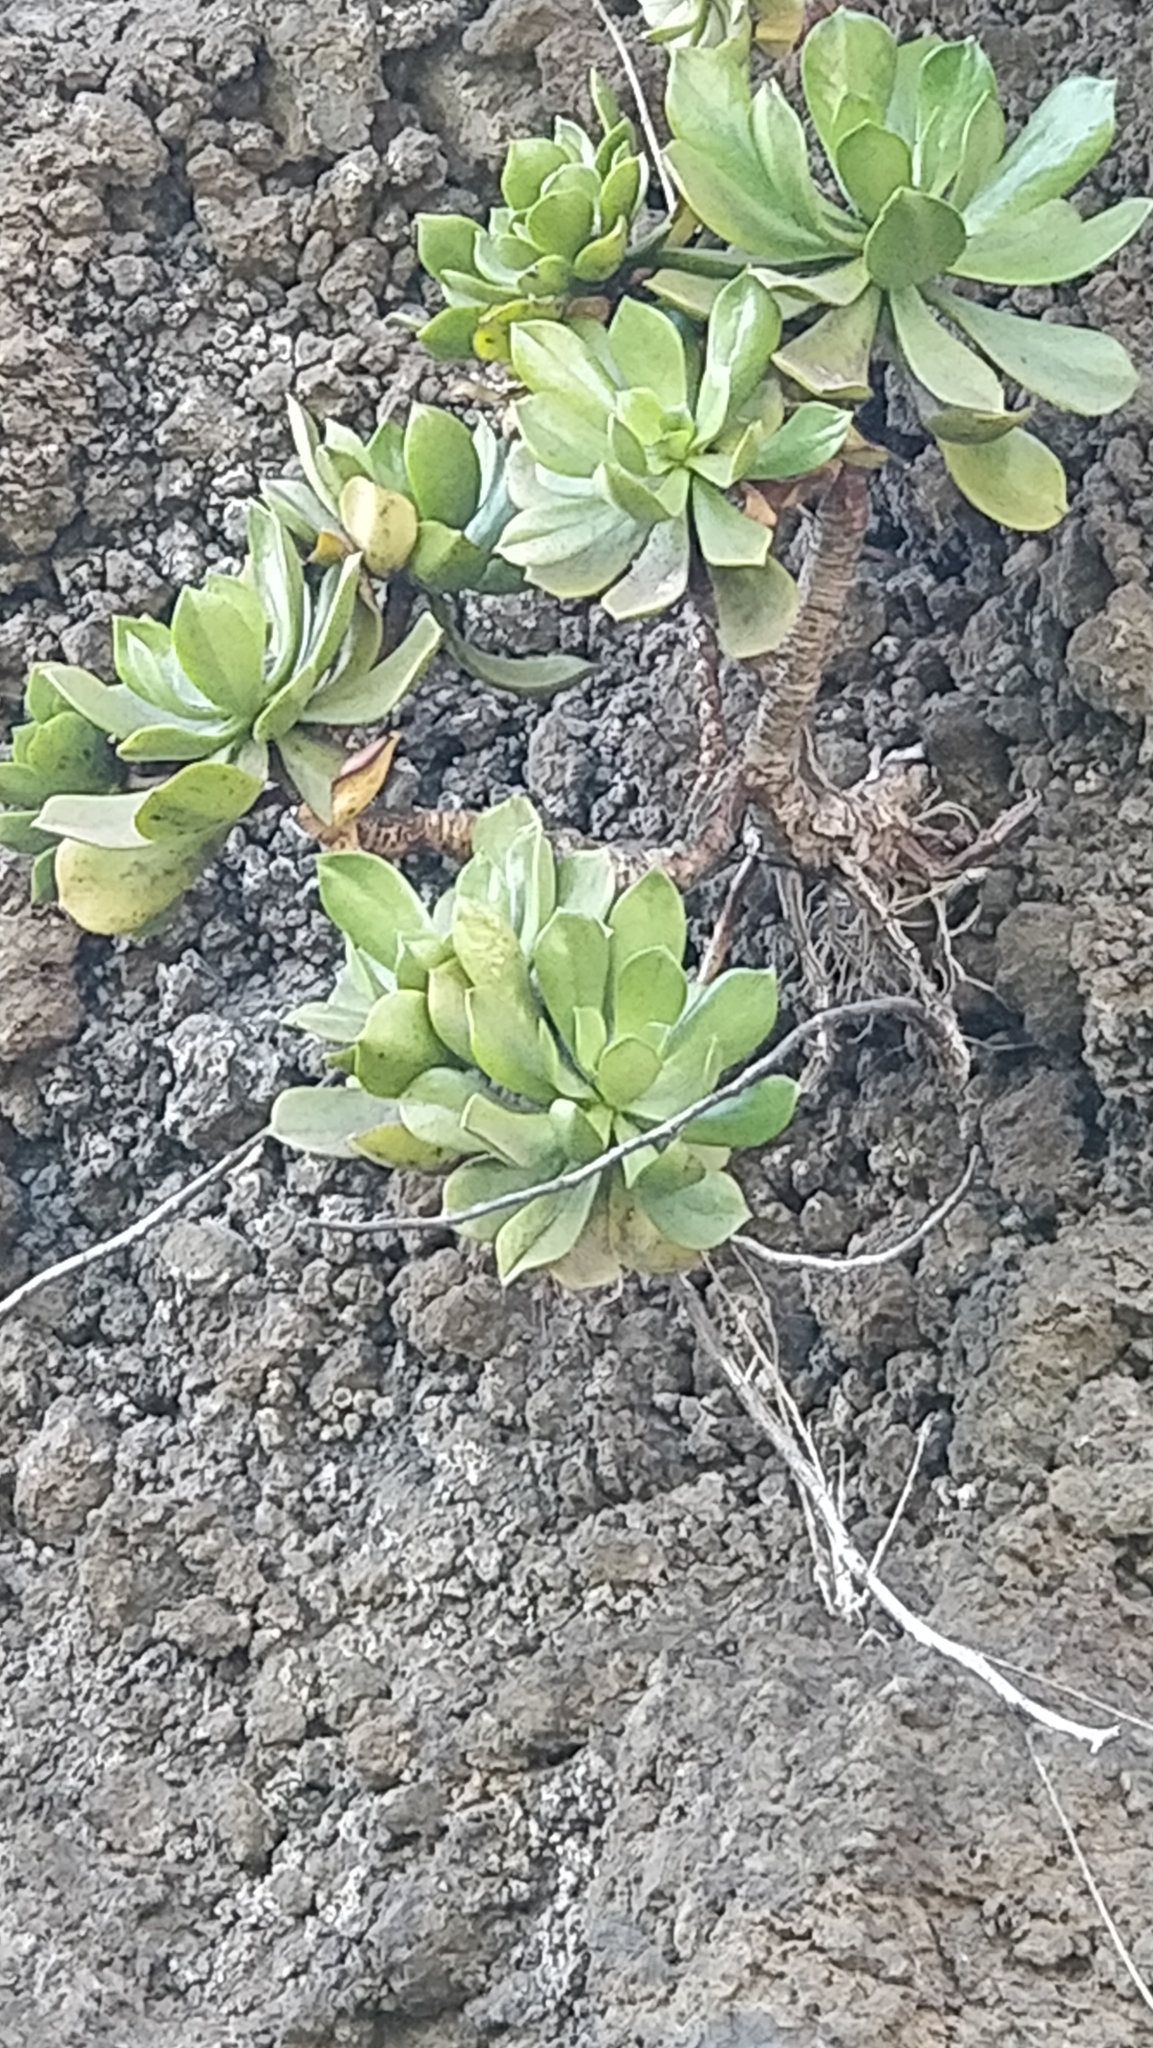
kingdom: Plantae
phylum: Tracheophyta
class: Magnoliopsida
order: Saxifragales
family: Crassulaceae
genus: Aeonium
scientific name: Aeonium glutinosum
